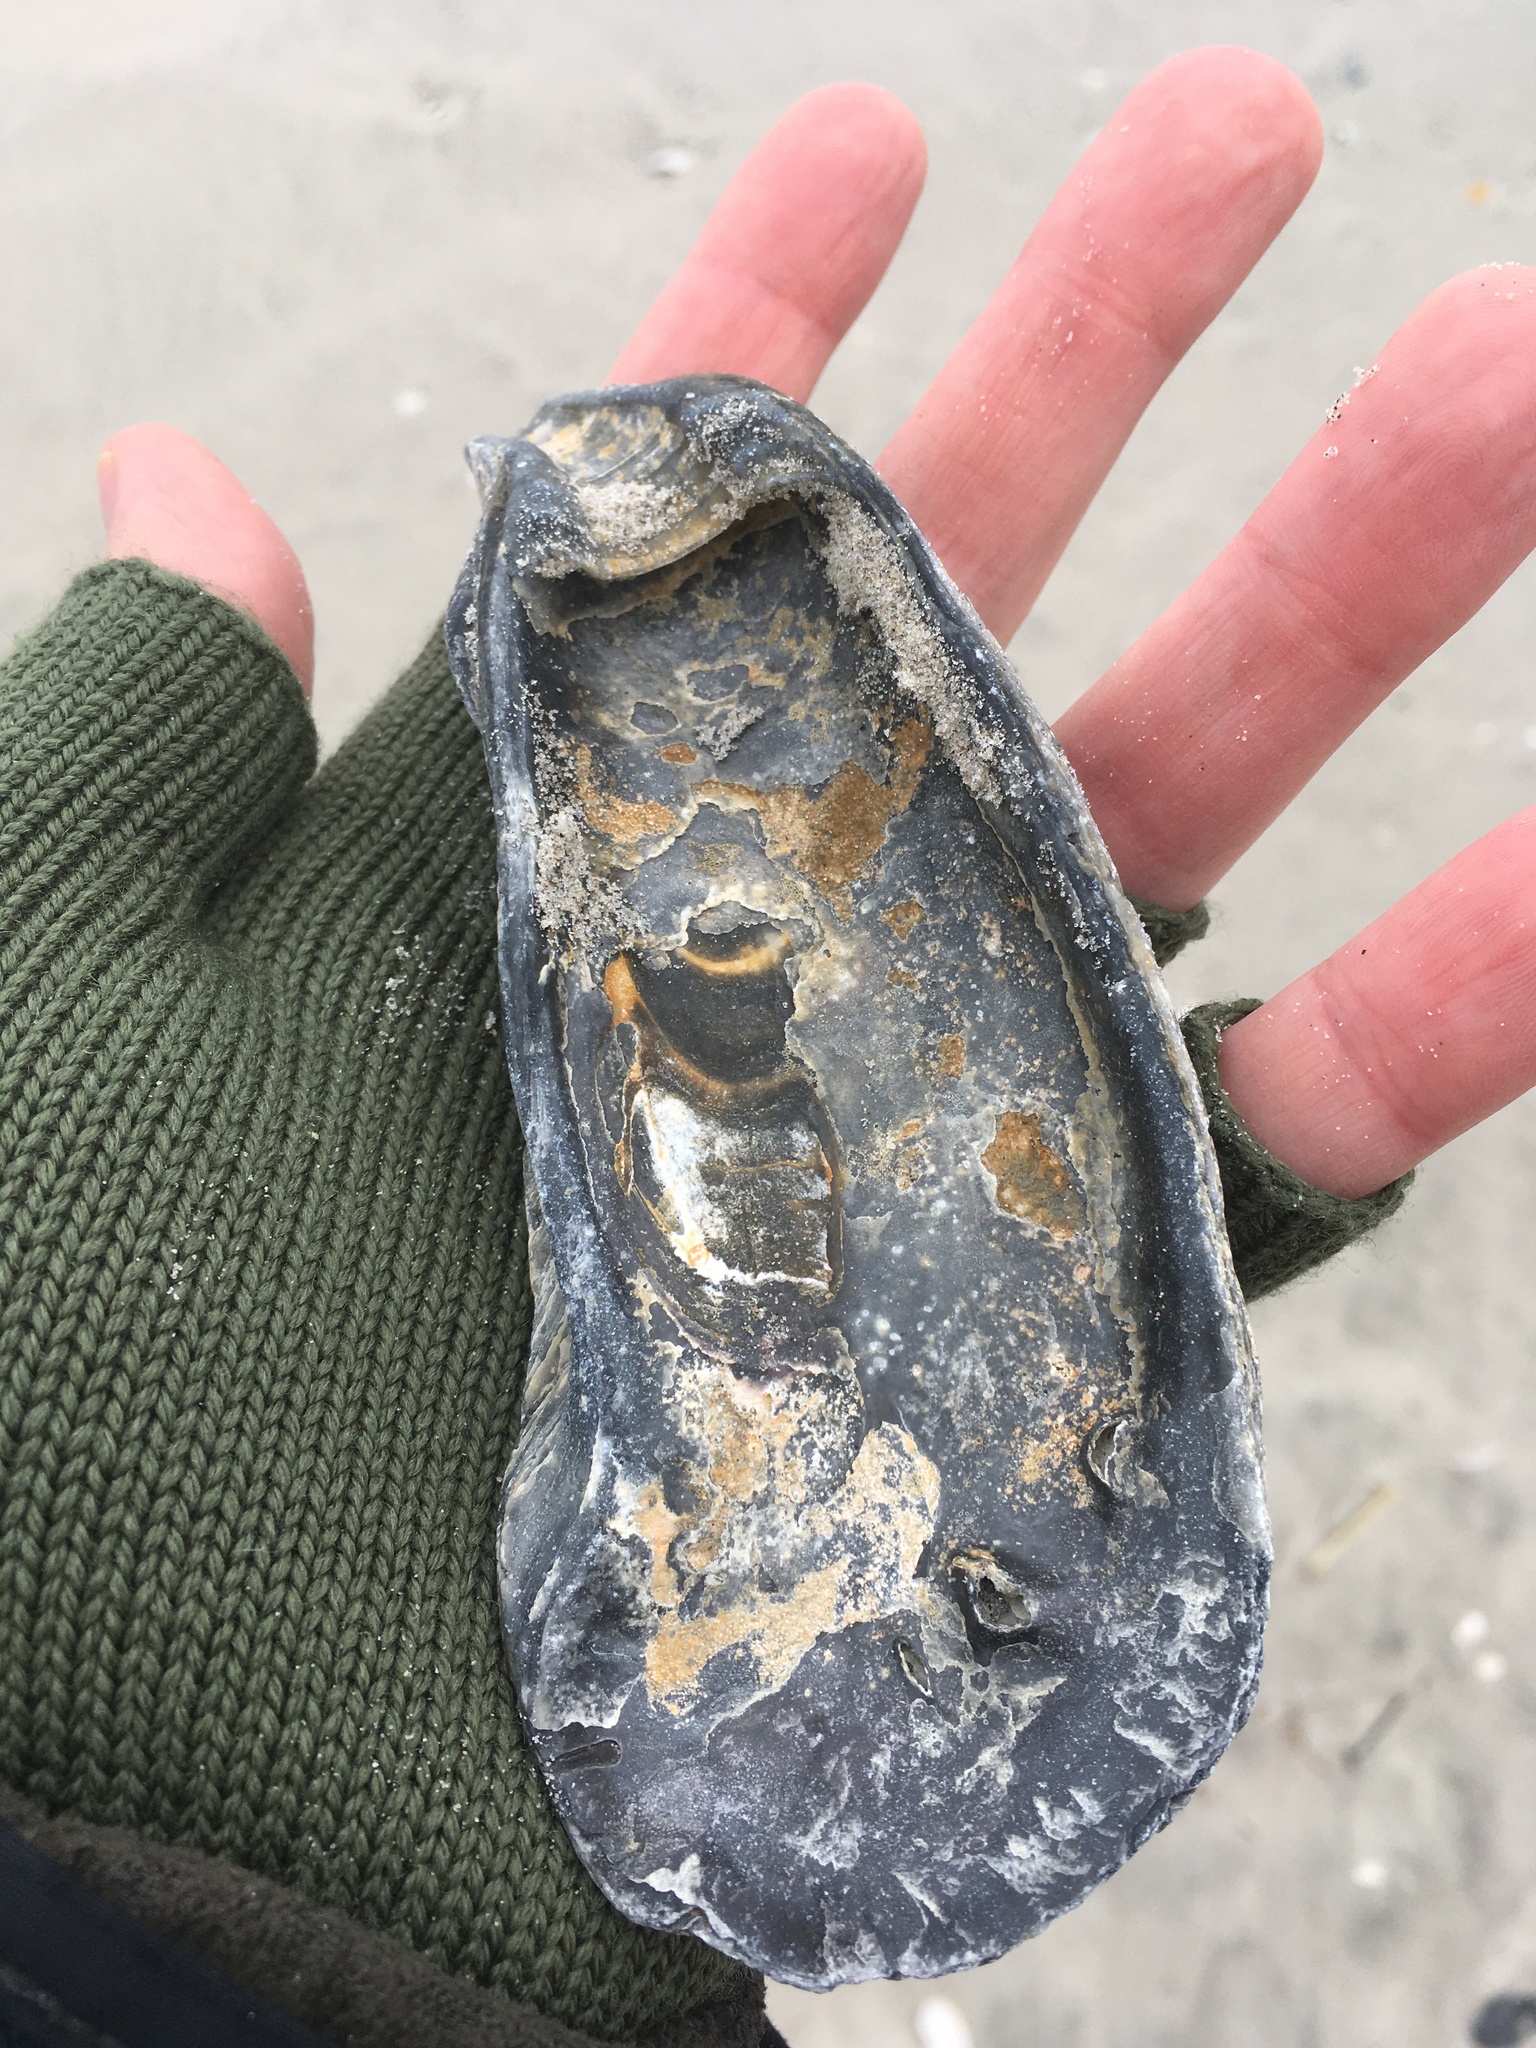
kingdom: Animalia
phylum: Mollusca
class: Bivalvia
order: Ostreida
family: Ostreidae
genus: Crassostrea
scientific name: Crassostrea virginica
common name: American oyster
